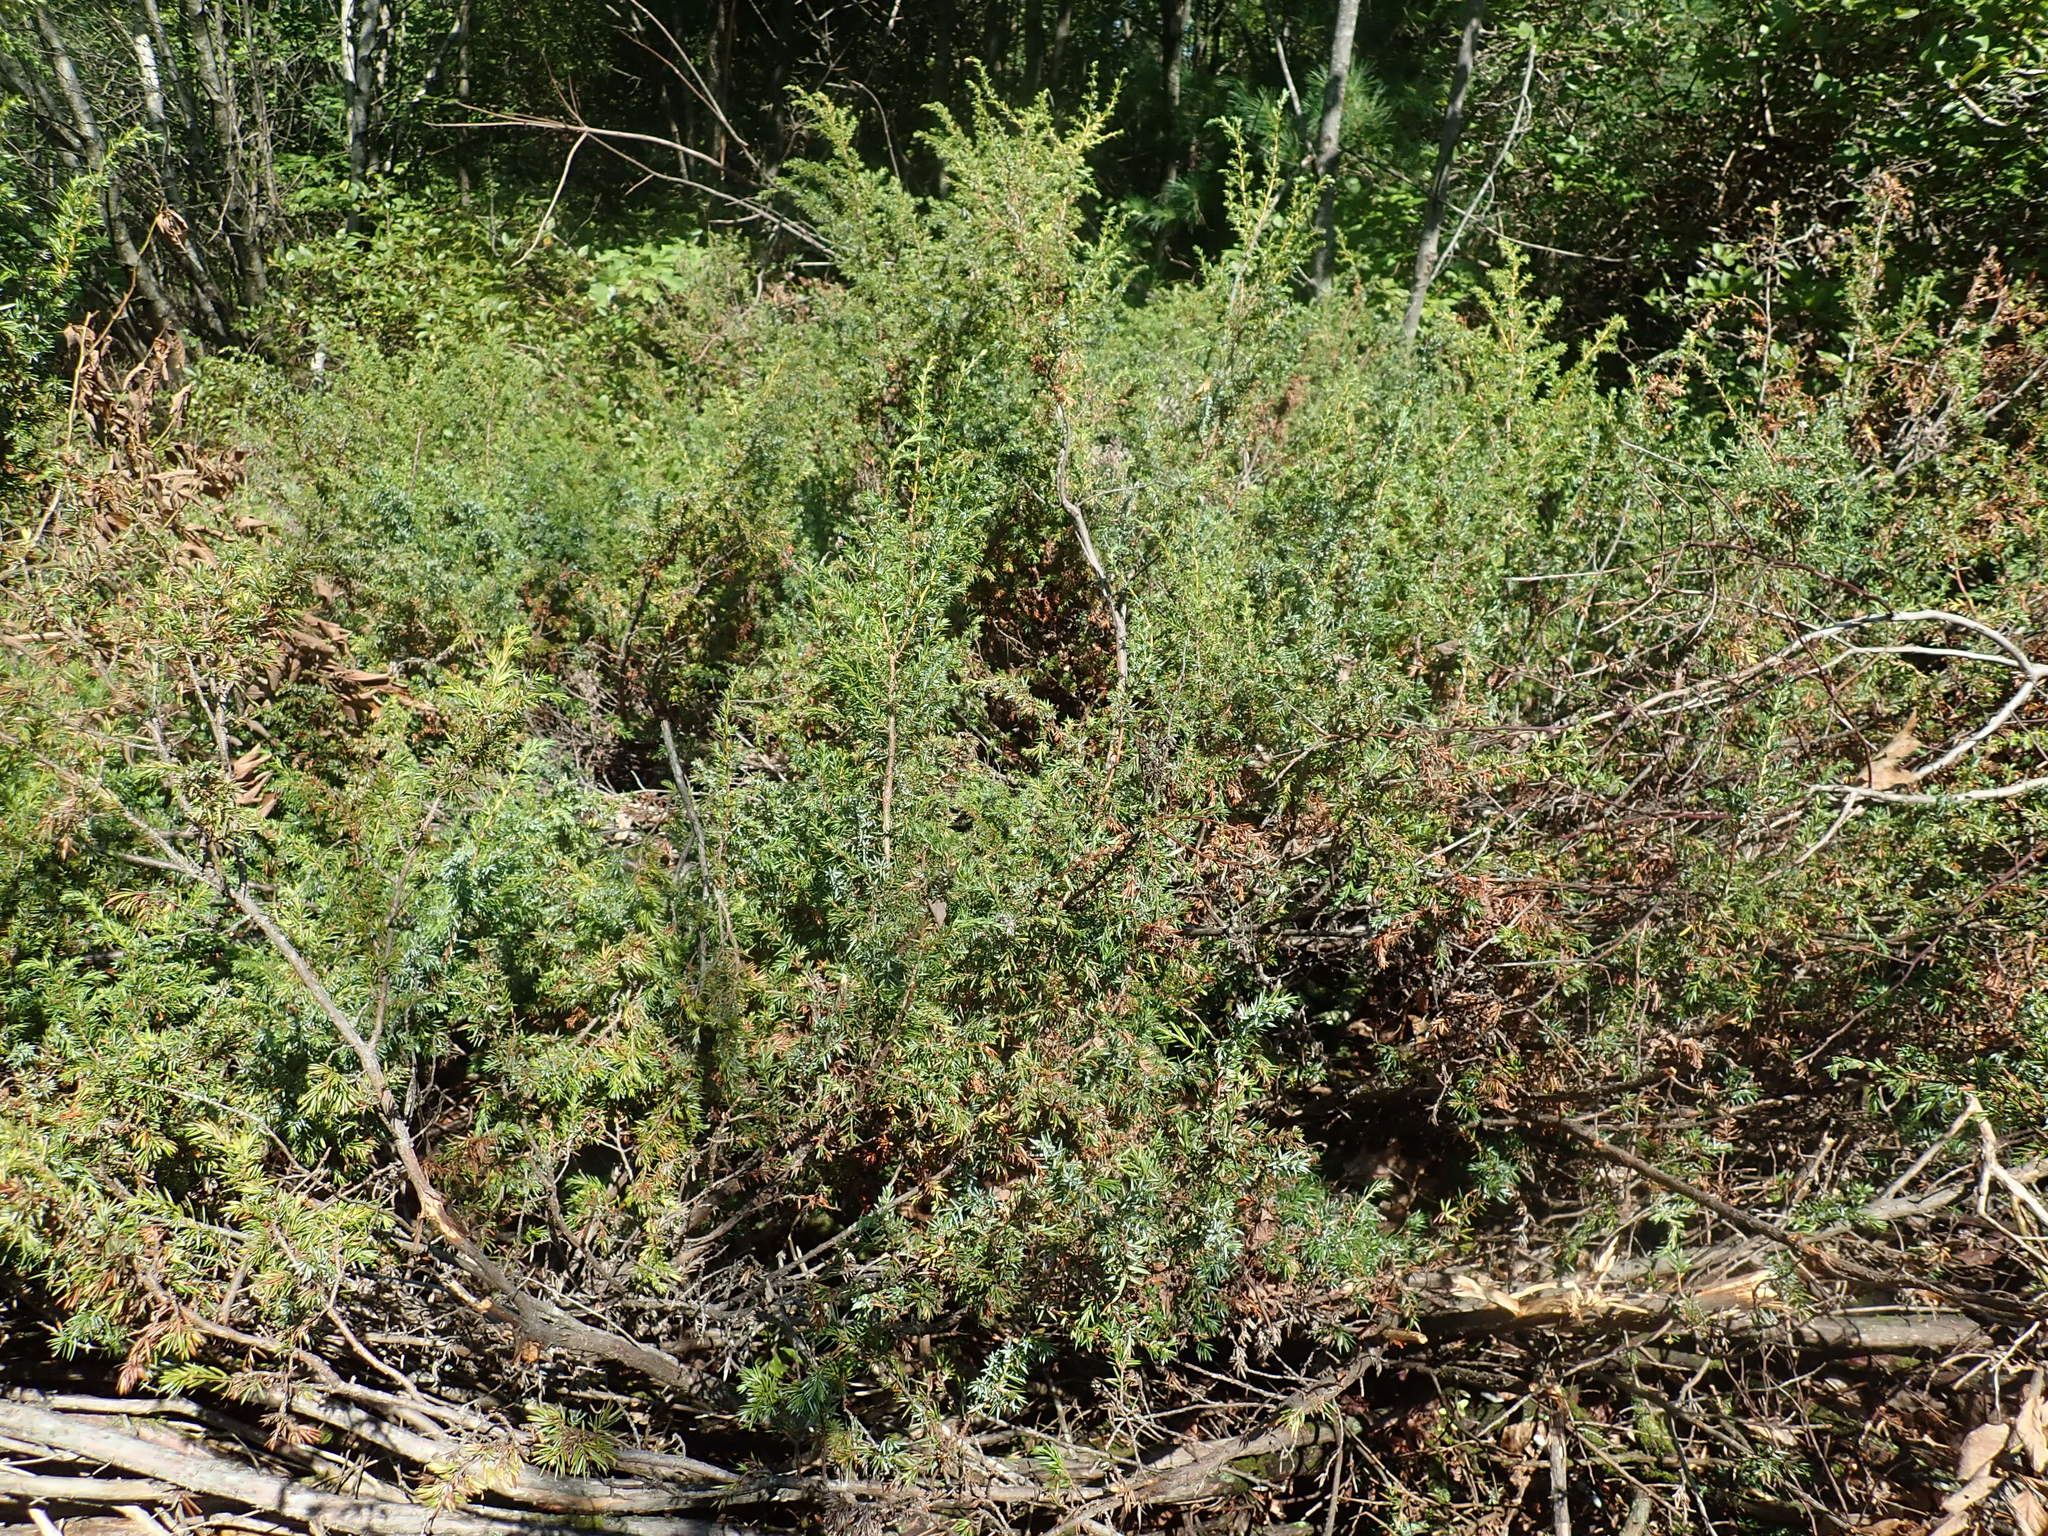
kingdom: Plantae
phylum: Tracheophyta
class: Pinopsida
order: Pinales
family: Cupressaceae
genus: Juniperus
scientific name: Juniperus communis
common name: Common juniper
